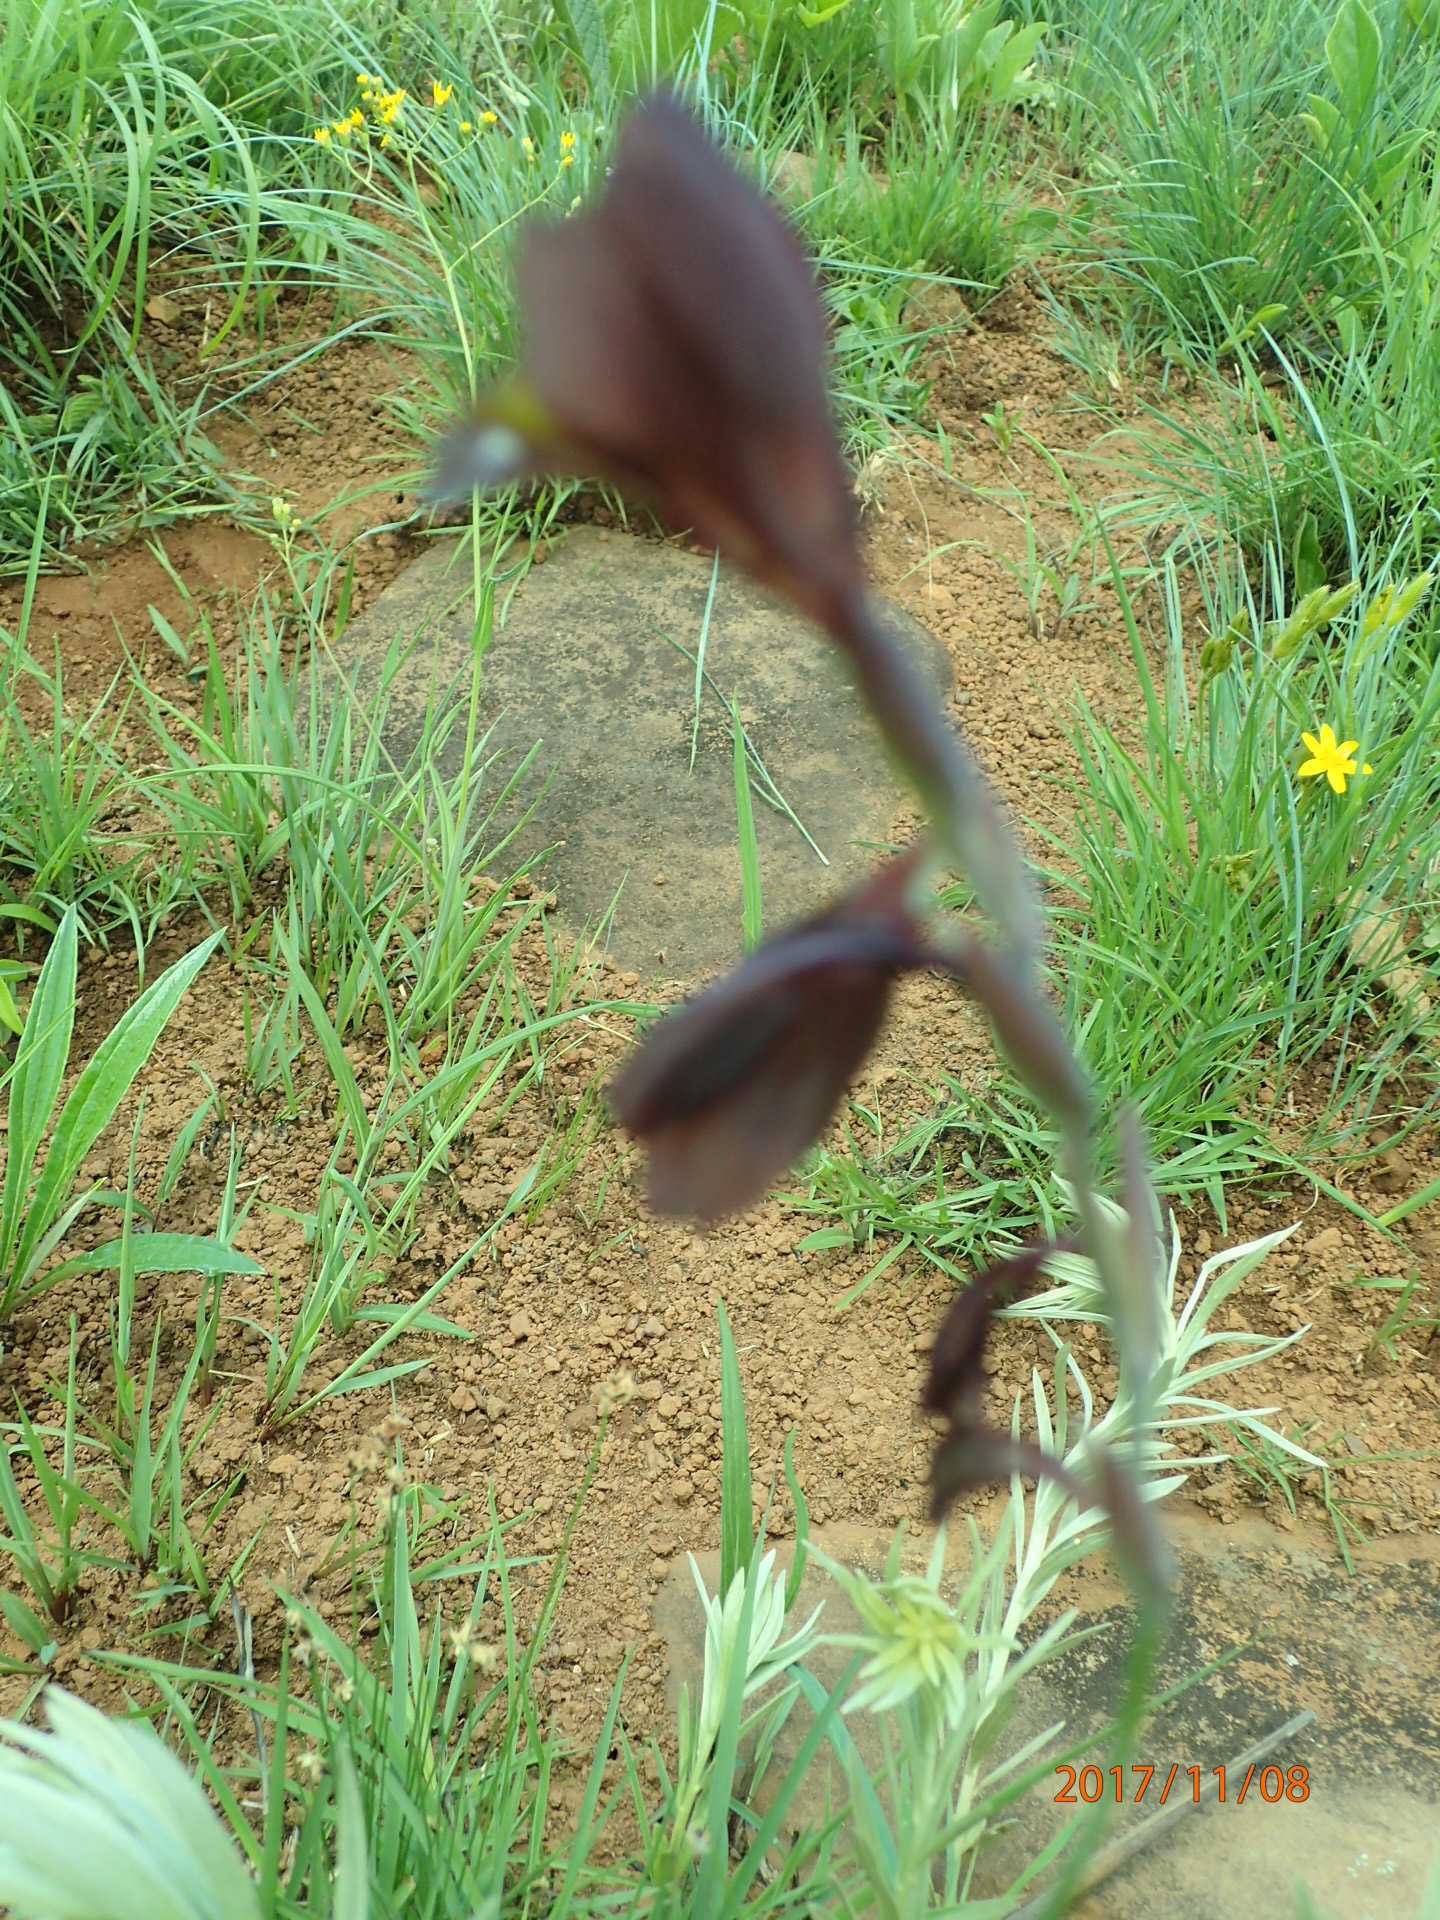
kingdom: Plantae
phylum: Tracheophyta
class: Liliopsida
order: Asparagales
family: Iridaceae
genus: Gladiolus
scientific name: Gladiolus woodii
